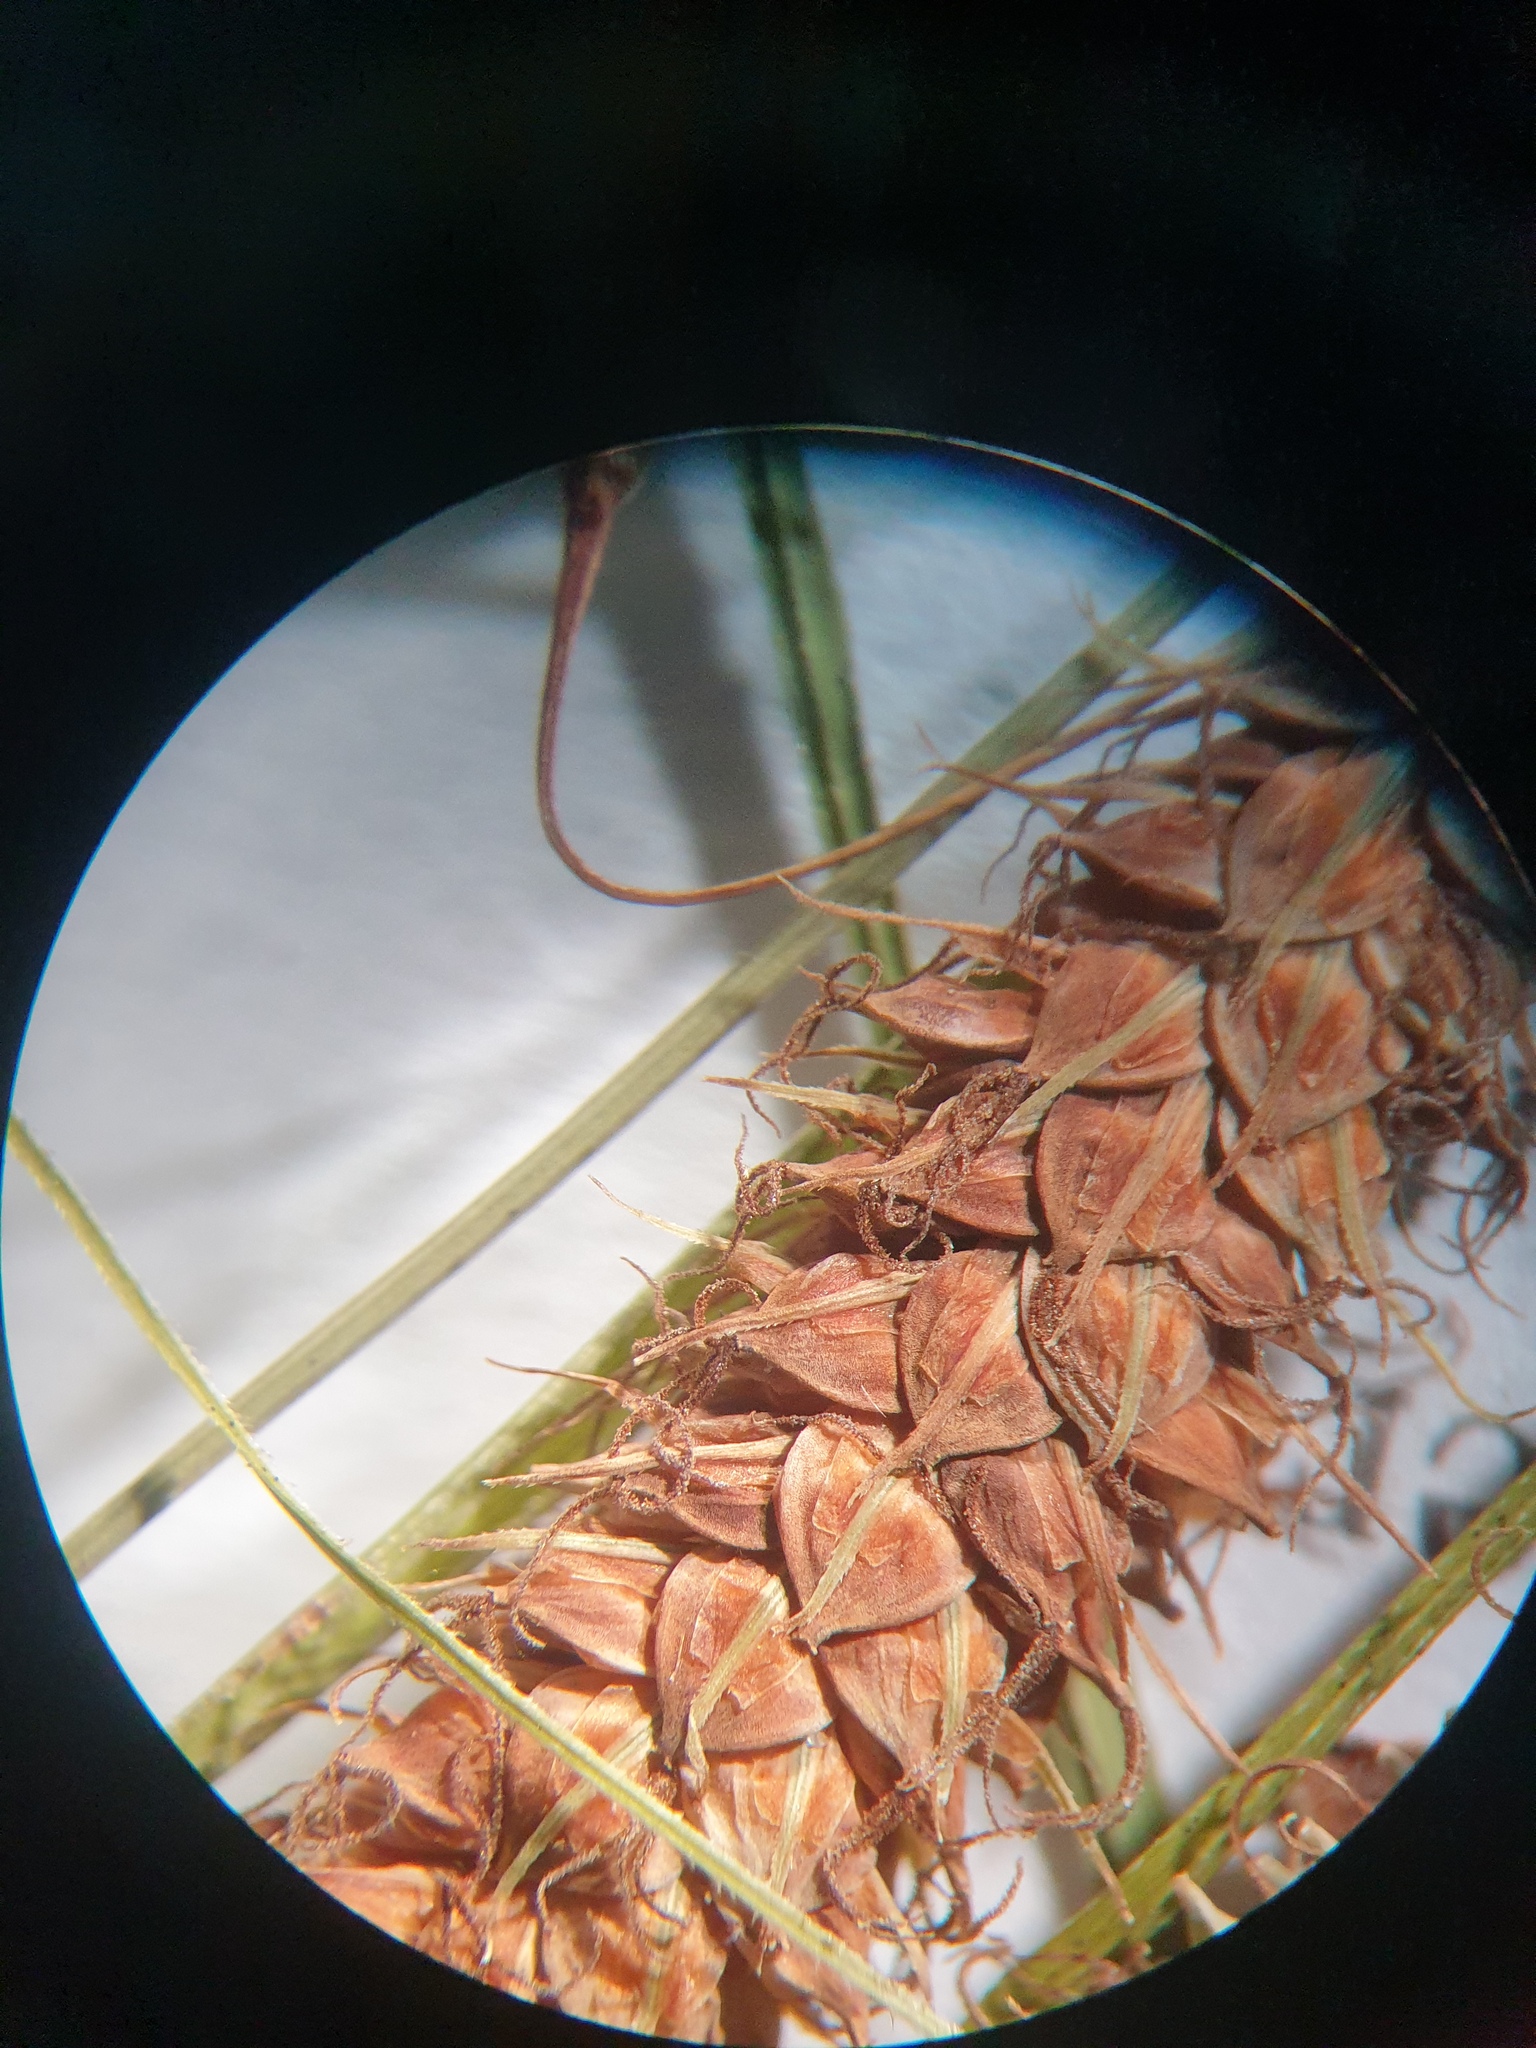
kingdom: Plantae
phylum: Tracheophyta
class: Liliopsida
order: Poales
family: Cyperaceae
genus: Carex
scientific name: Carex glaucescens
